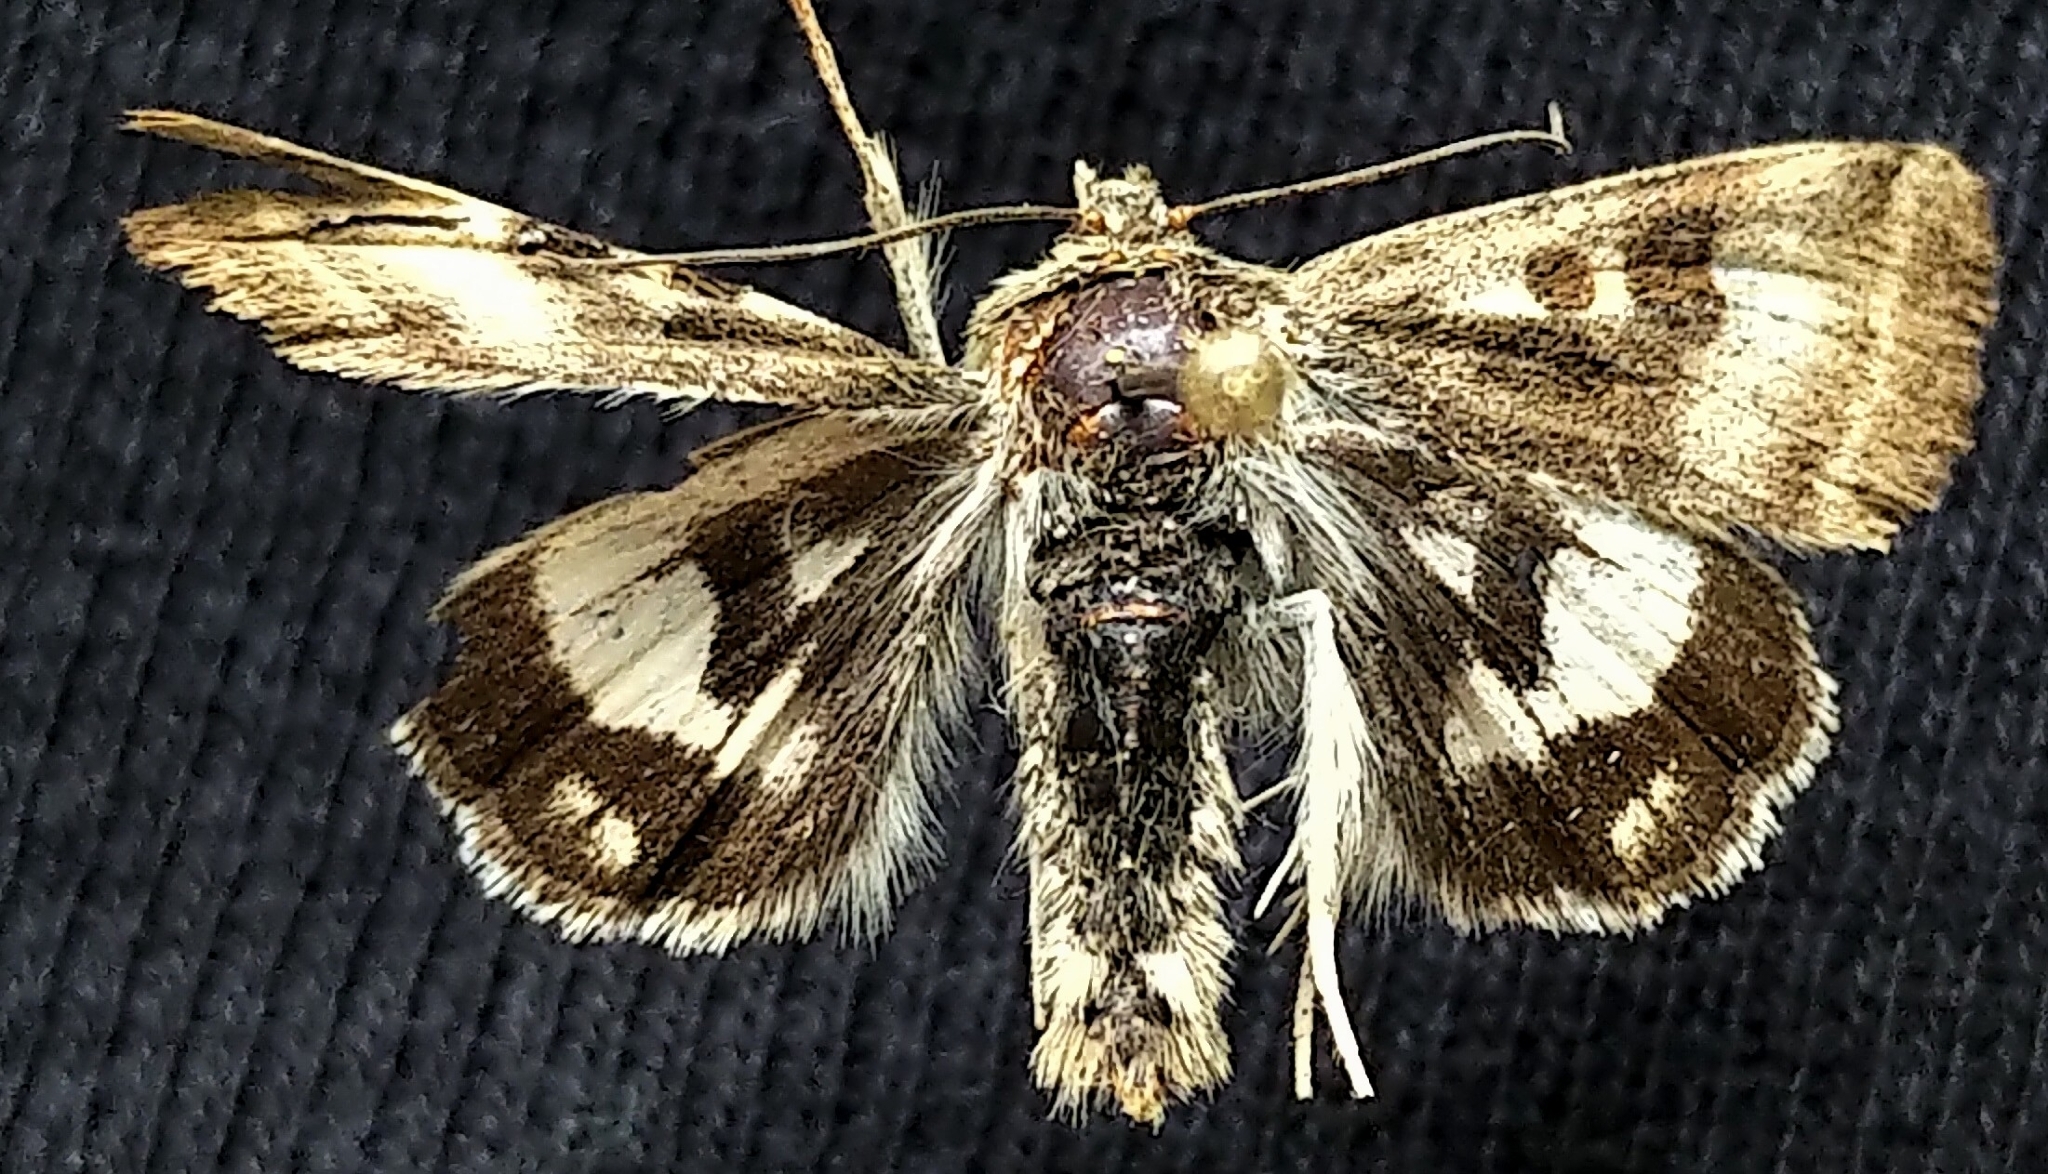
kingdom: Animalia
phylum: Arthropoda
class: Insecta
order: Lepidoptera
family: Noctuidae
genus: Heliothis
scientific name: Heliothis oregonica
